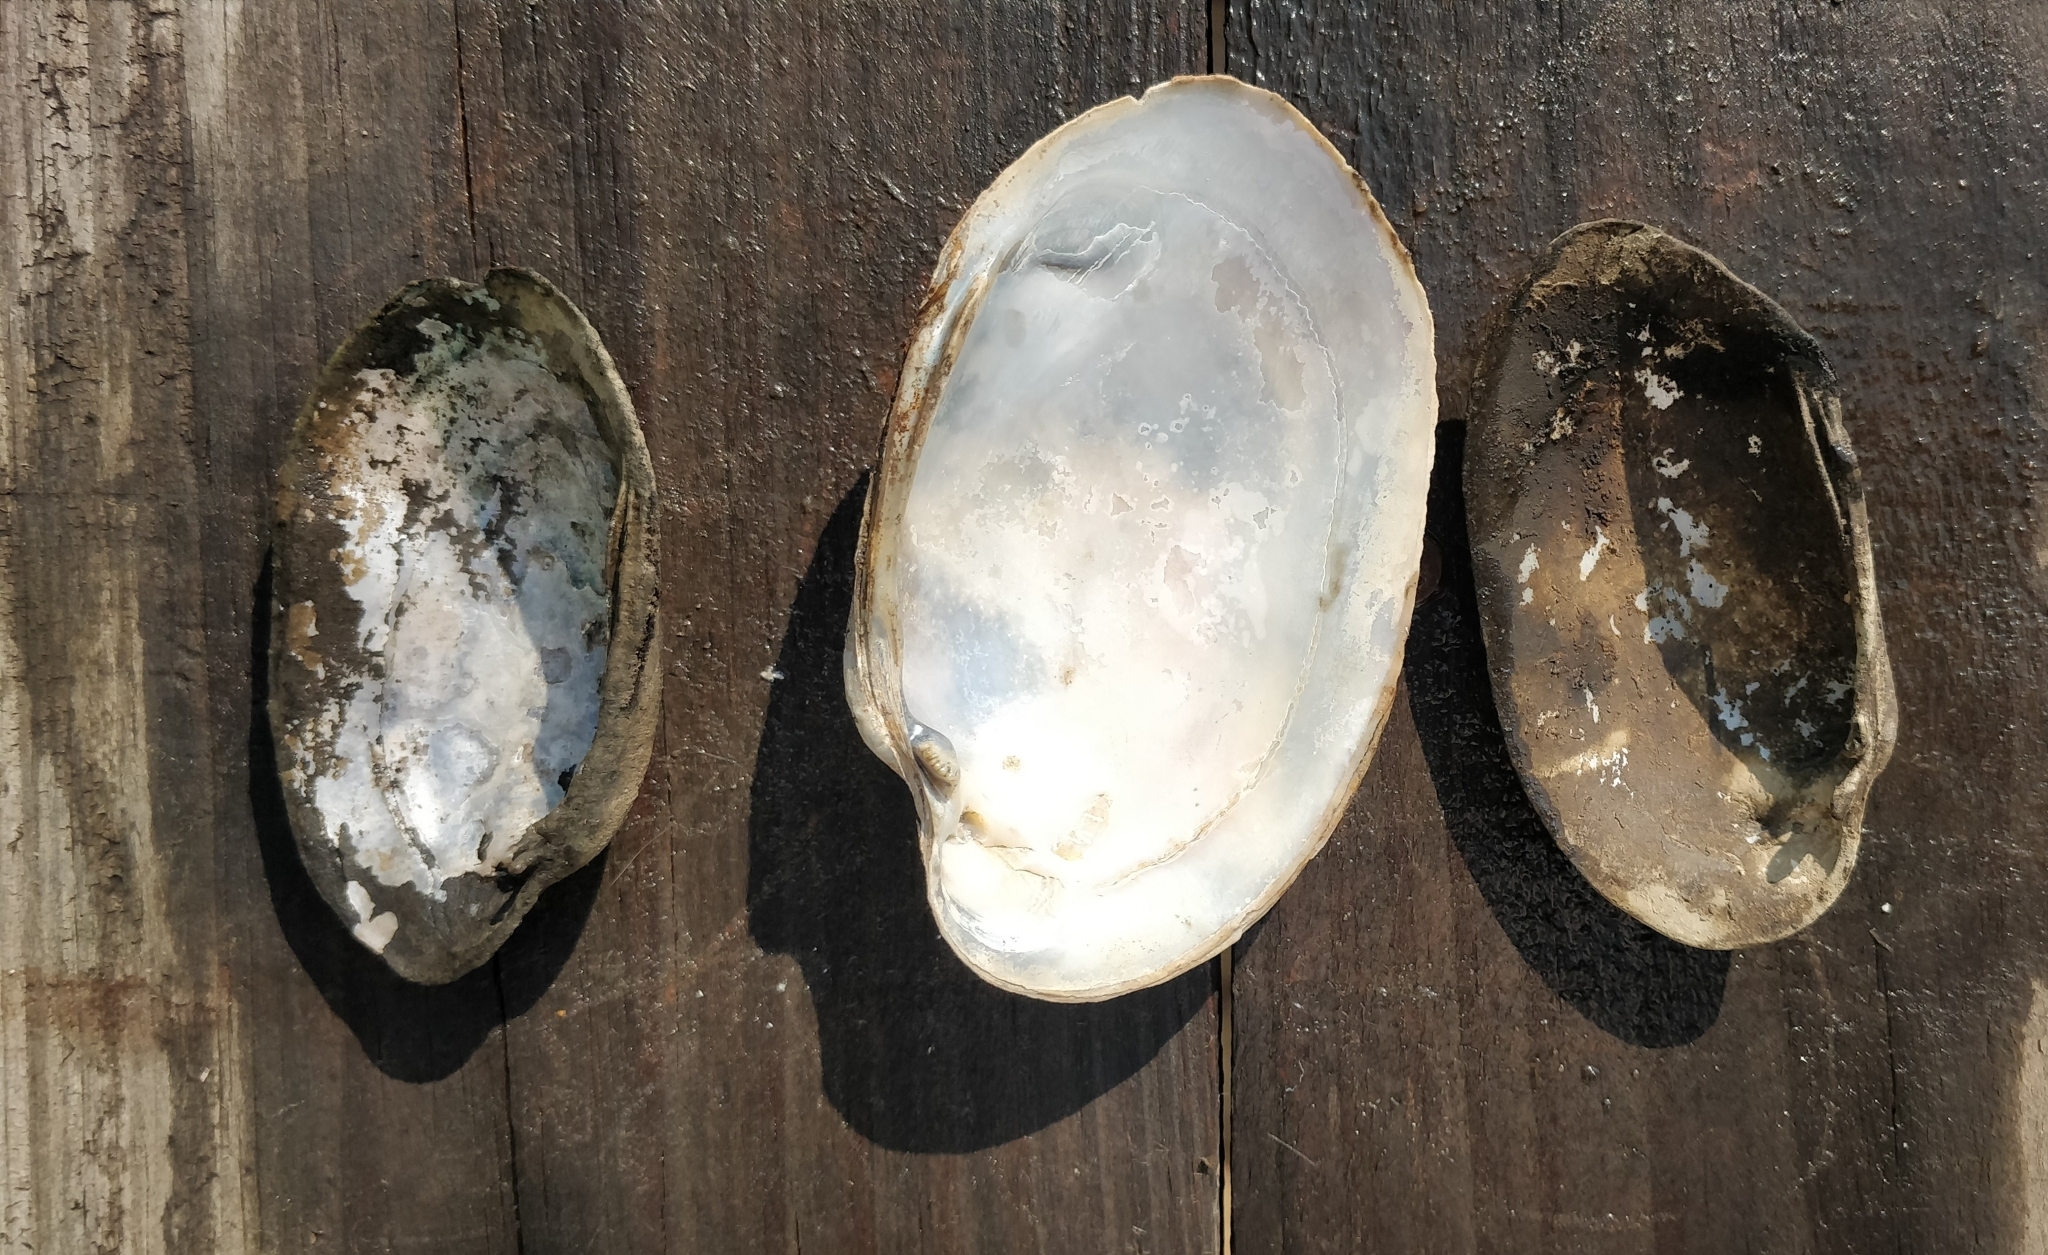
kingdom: Animalia
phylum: Mollusca
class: Bivalvia
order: Unionida
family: Unionidae
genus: Lampsilis
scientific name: Lampsilis siliquoidea
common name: Fatmucket
